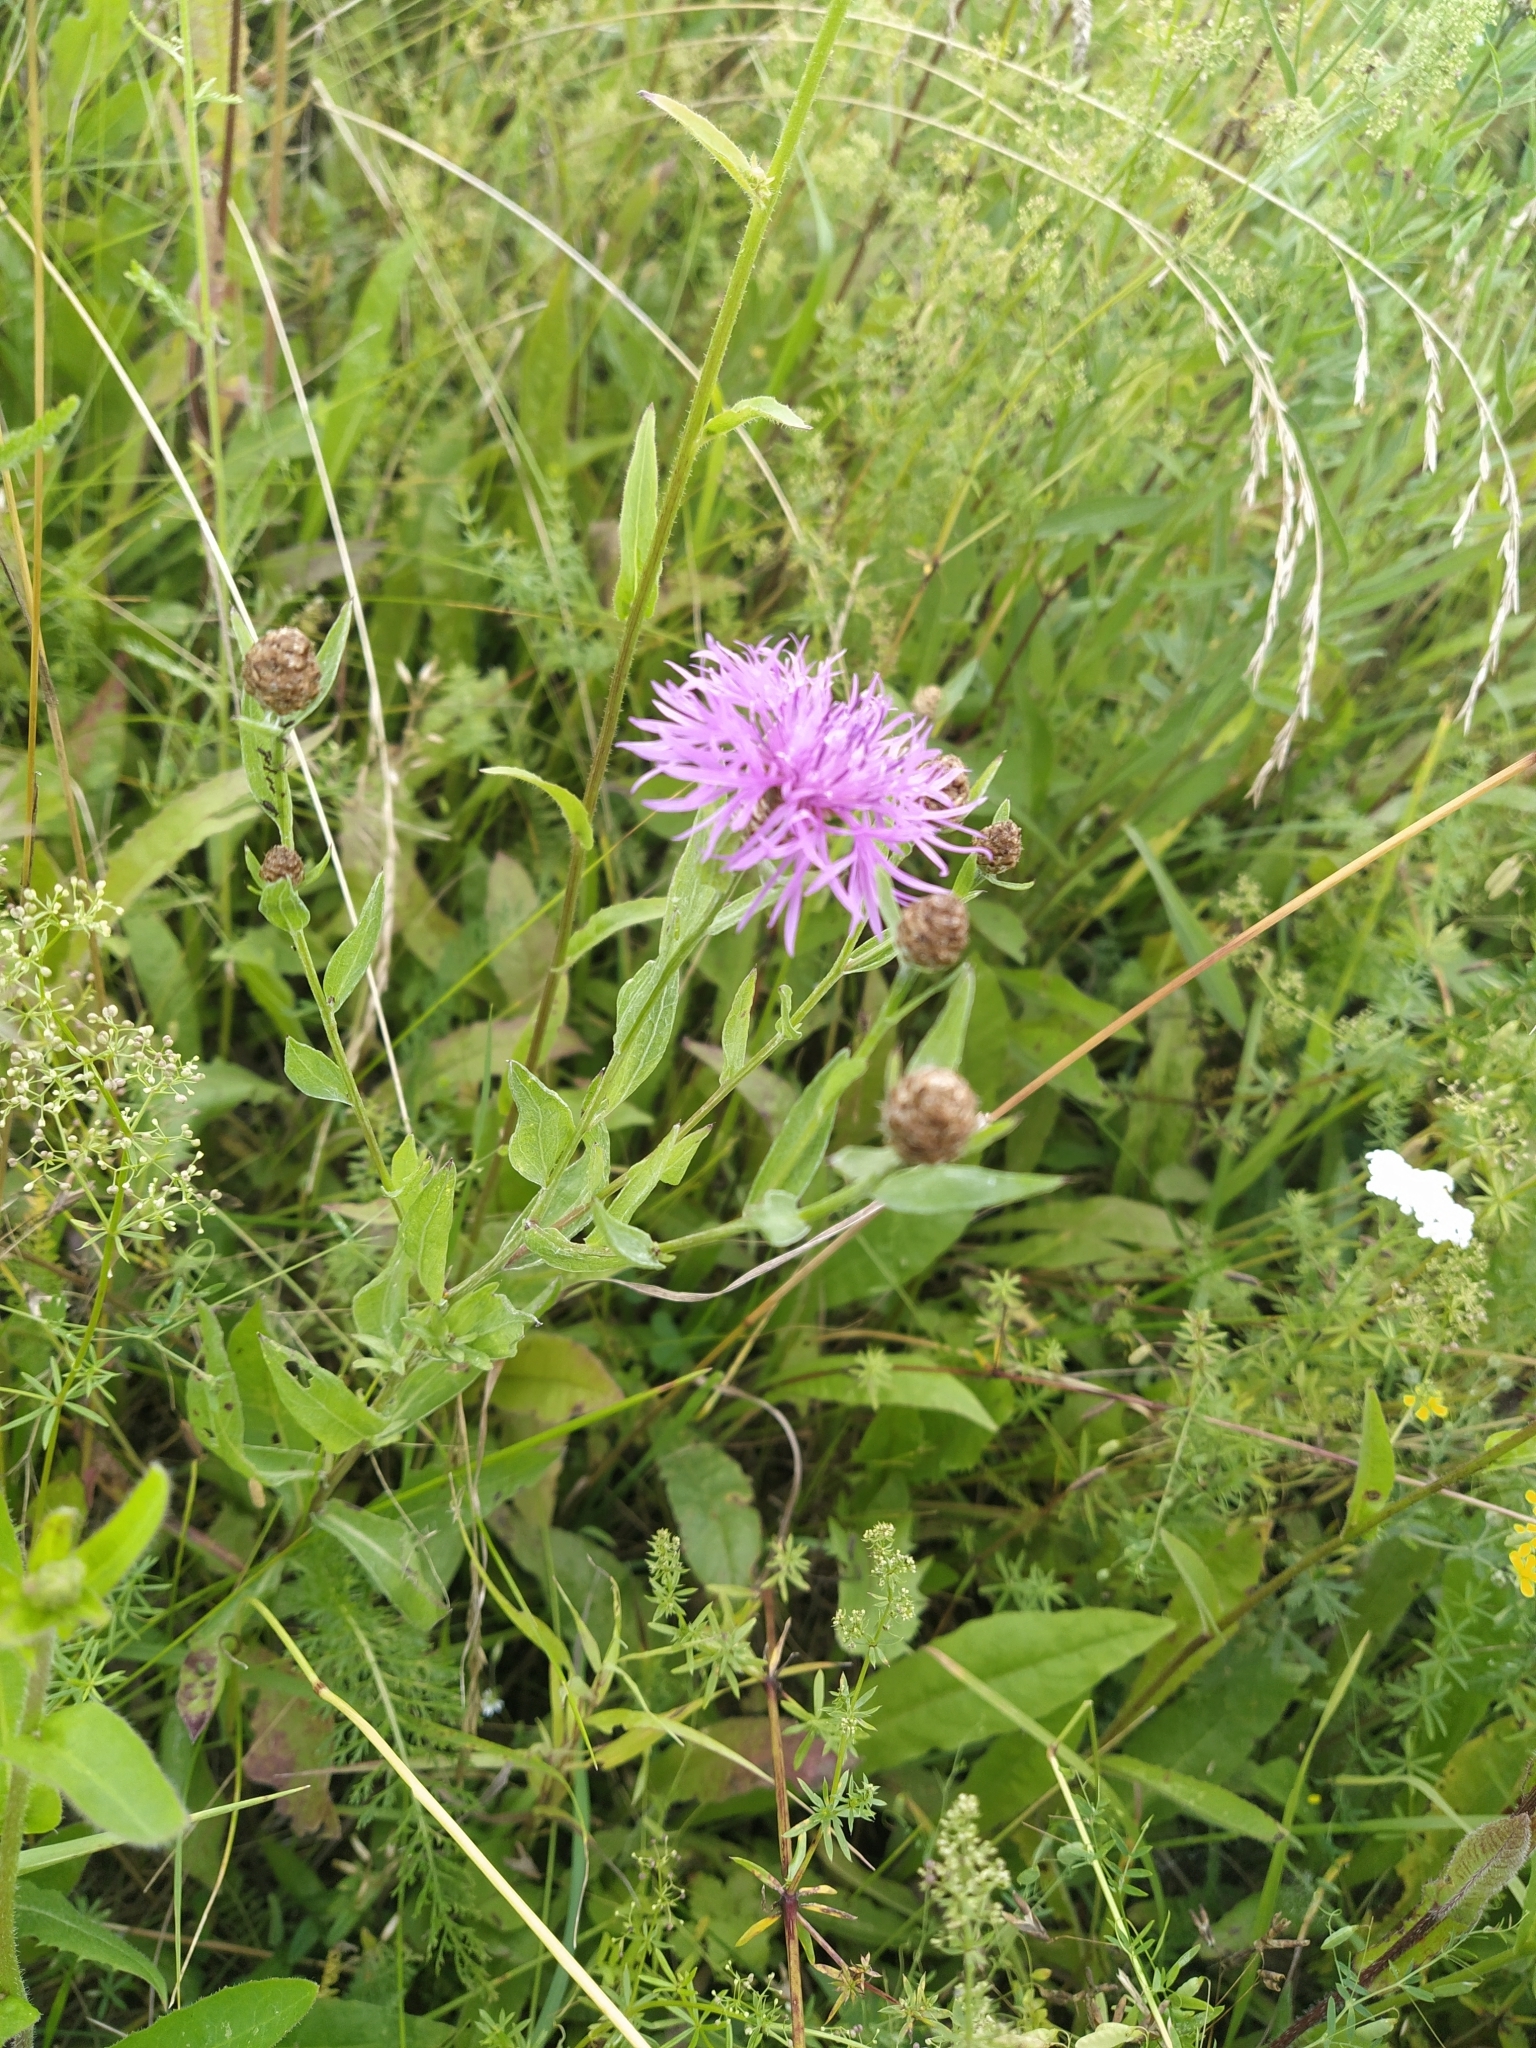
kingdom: Plantae
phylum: Tracheophyta
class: Magnoliopsida
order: Asterales
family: Asteraceae
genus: Centaurea
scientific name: Centaurea jacea
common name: Brown knapweed
